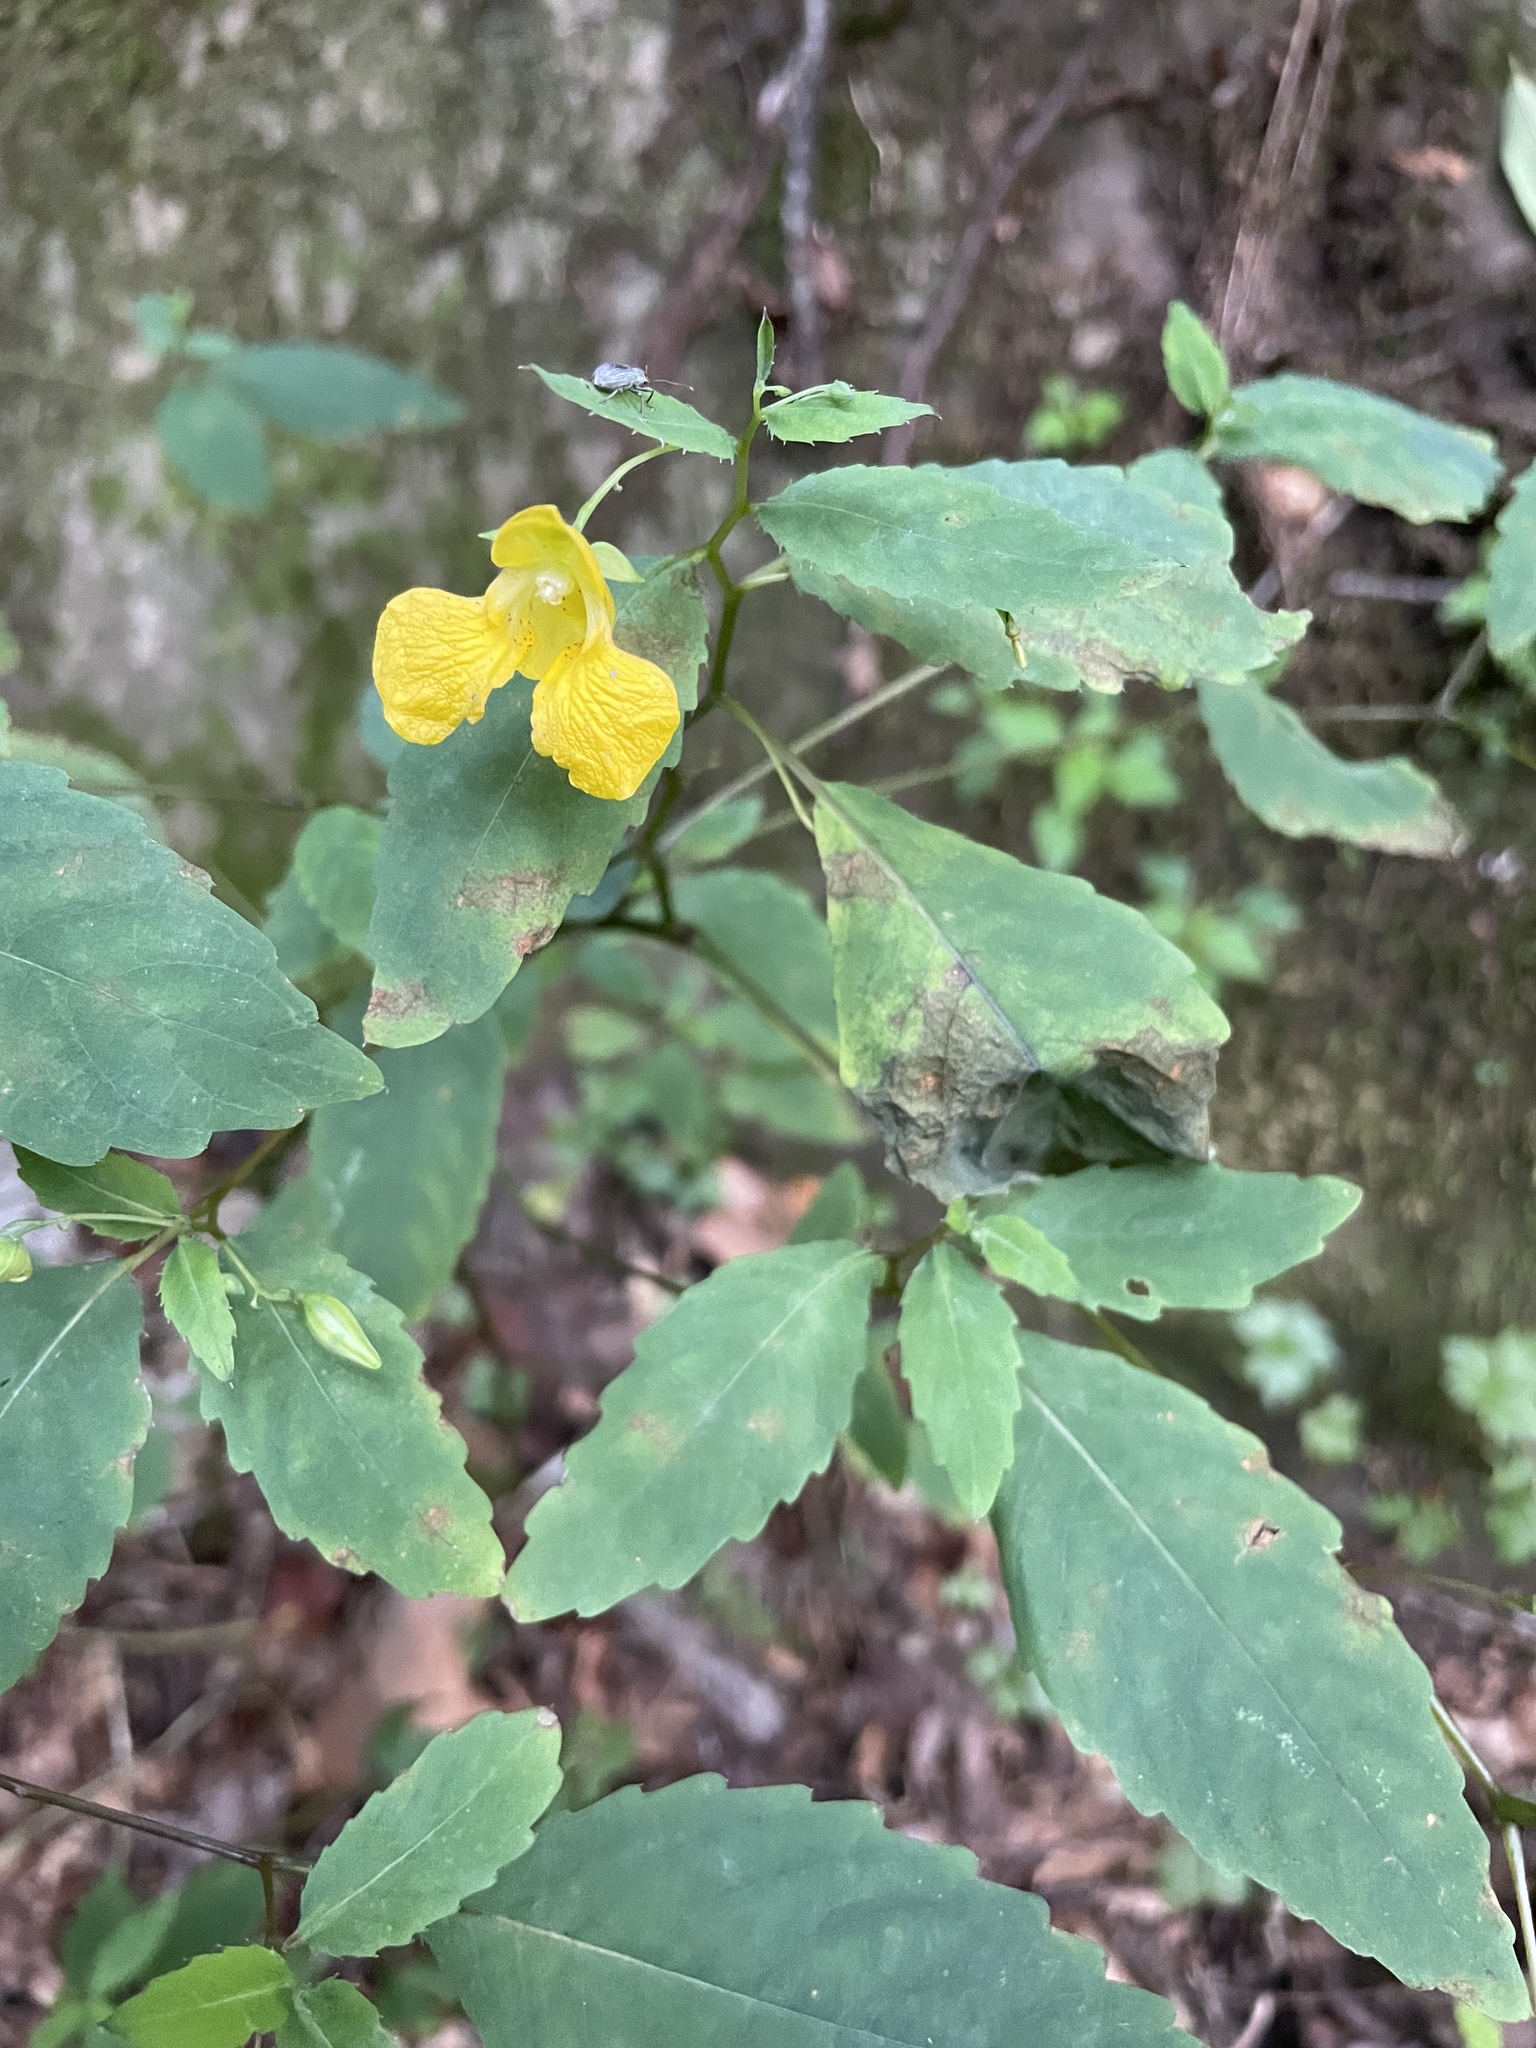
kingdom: Plantae
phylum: Tracheophyta
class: Magnoliopsida
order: Ericales
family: Balsaminaceae
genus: Impatiens
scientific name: Impatiens pallida
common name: Pale snapweed
